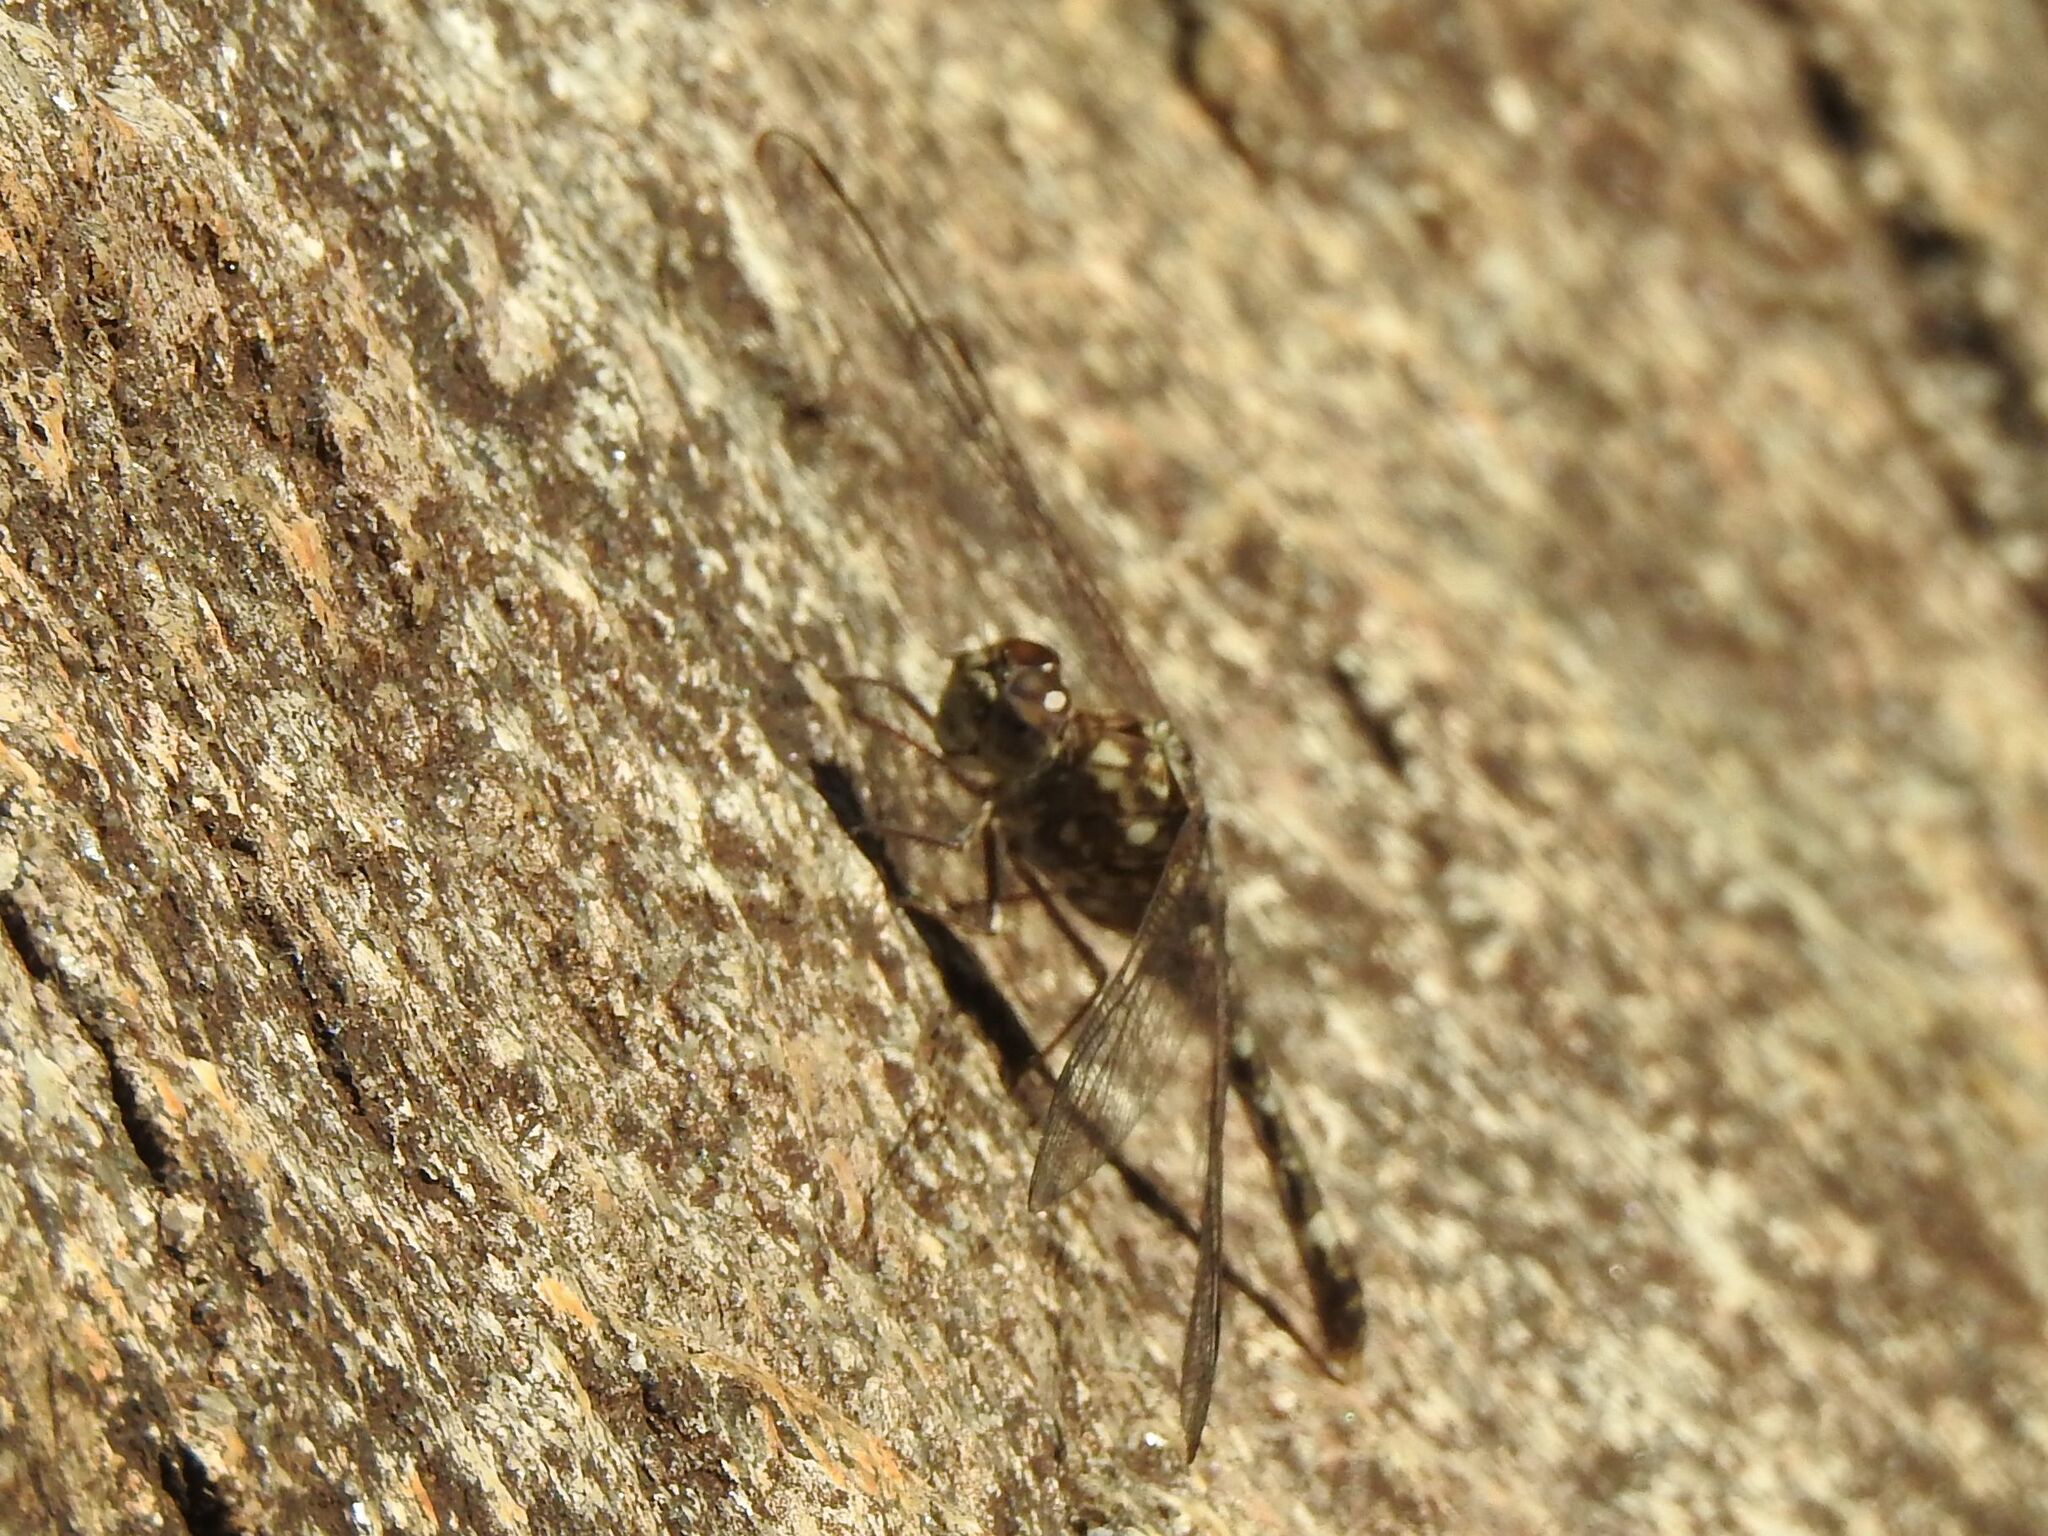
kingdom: Animalia
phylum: Arthropoda
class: Insecta
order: Odonata
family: Libellulidae
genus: Bradinopyga
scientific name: Bradinopyga cornuta
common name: Flecked wall-skimmer
